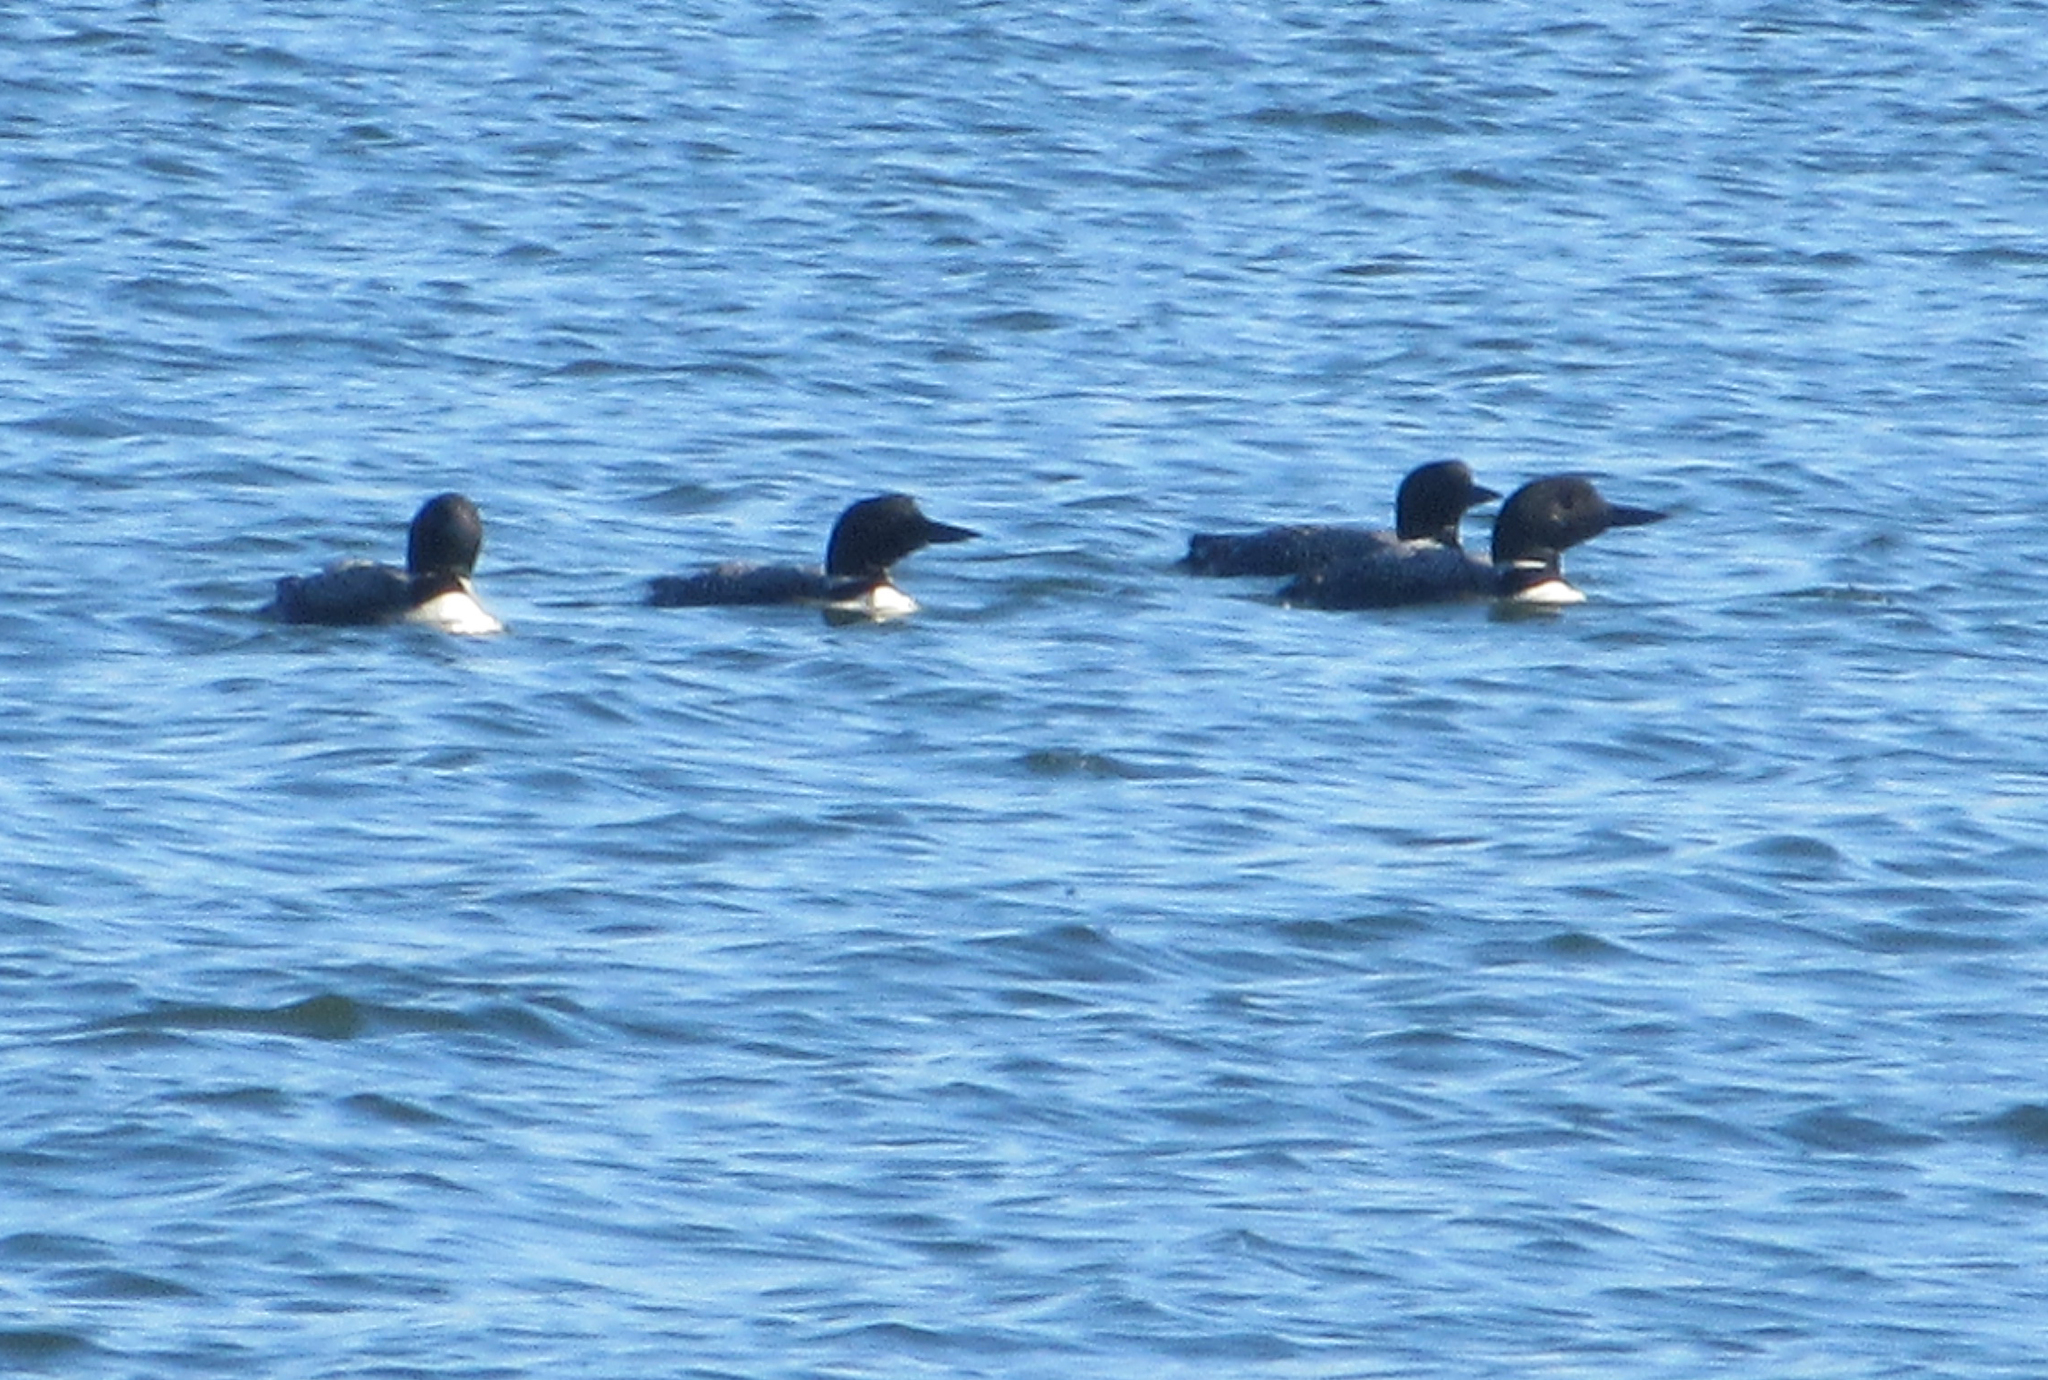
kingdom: Animalia
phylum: Chordata
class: Aves
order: Gaviiformes
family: Gaviidae
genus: Gavia
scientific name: Gavia immer
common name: Common loon
